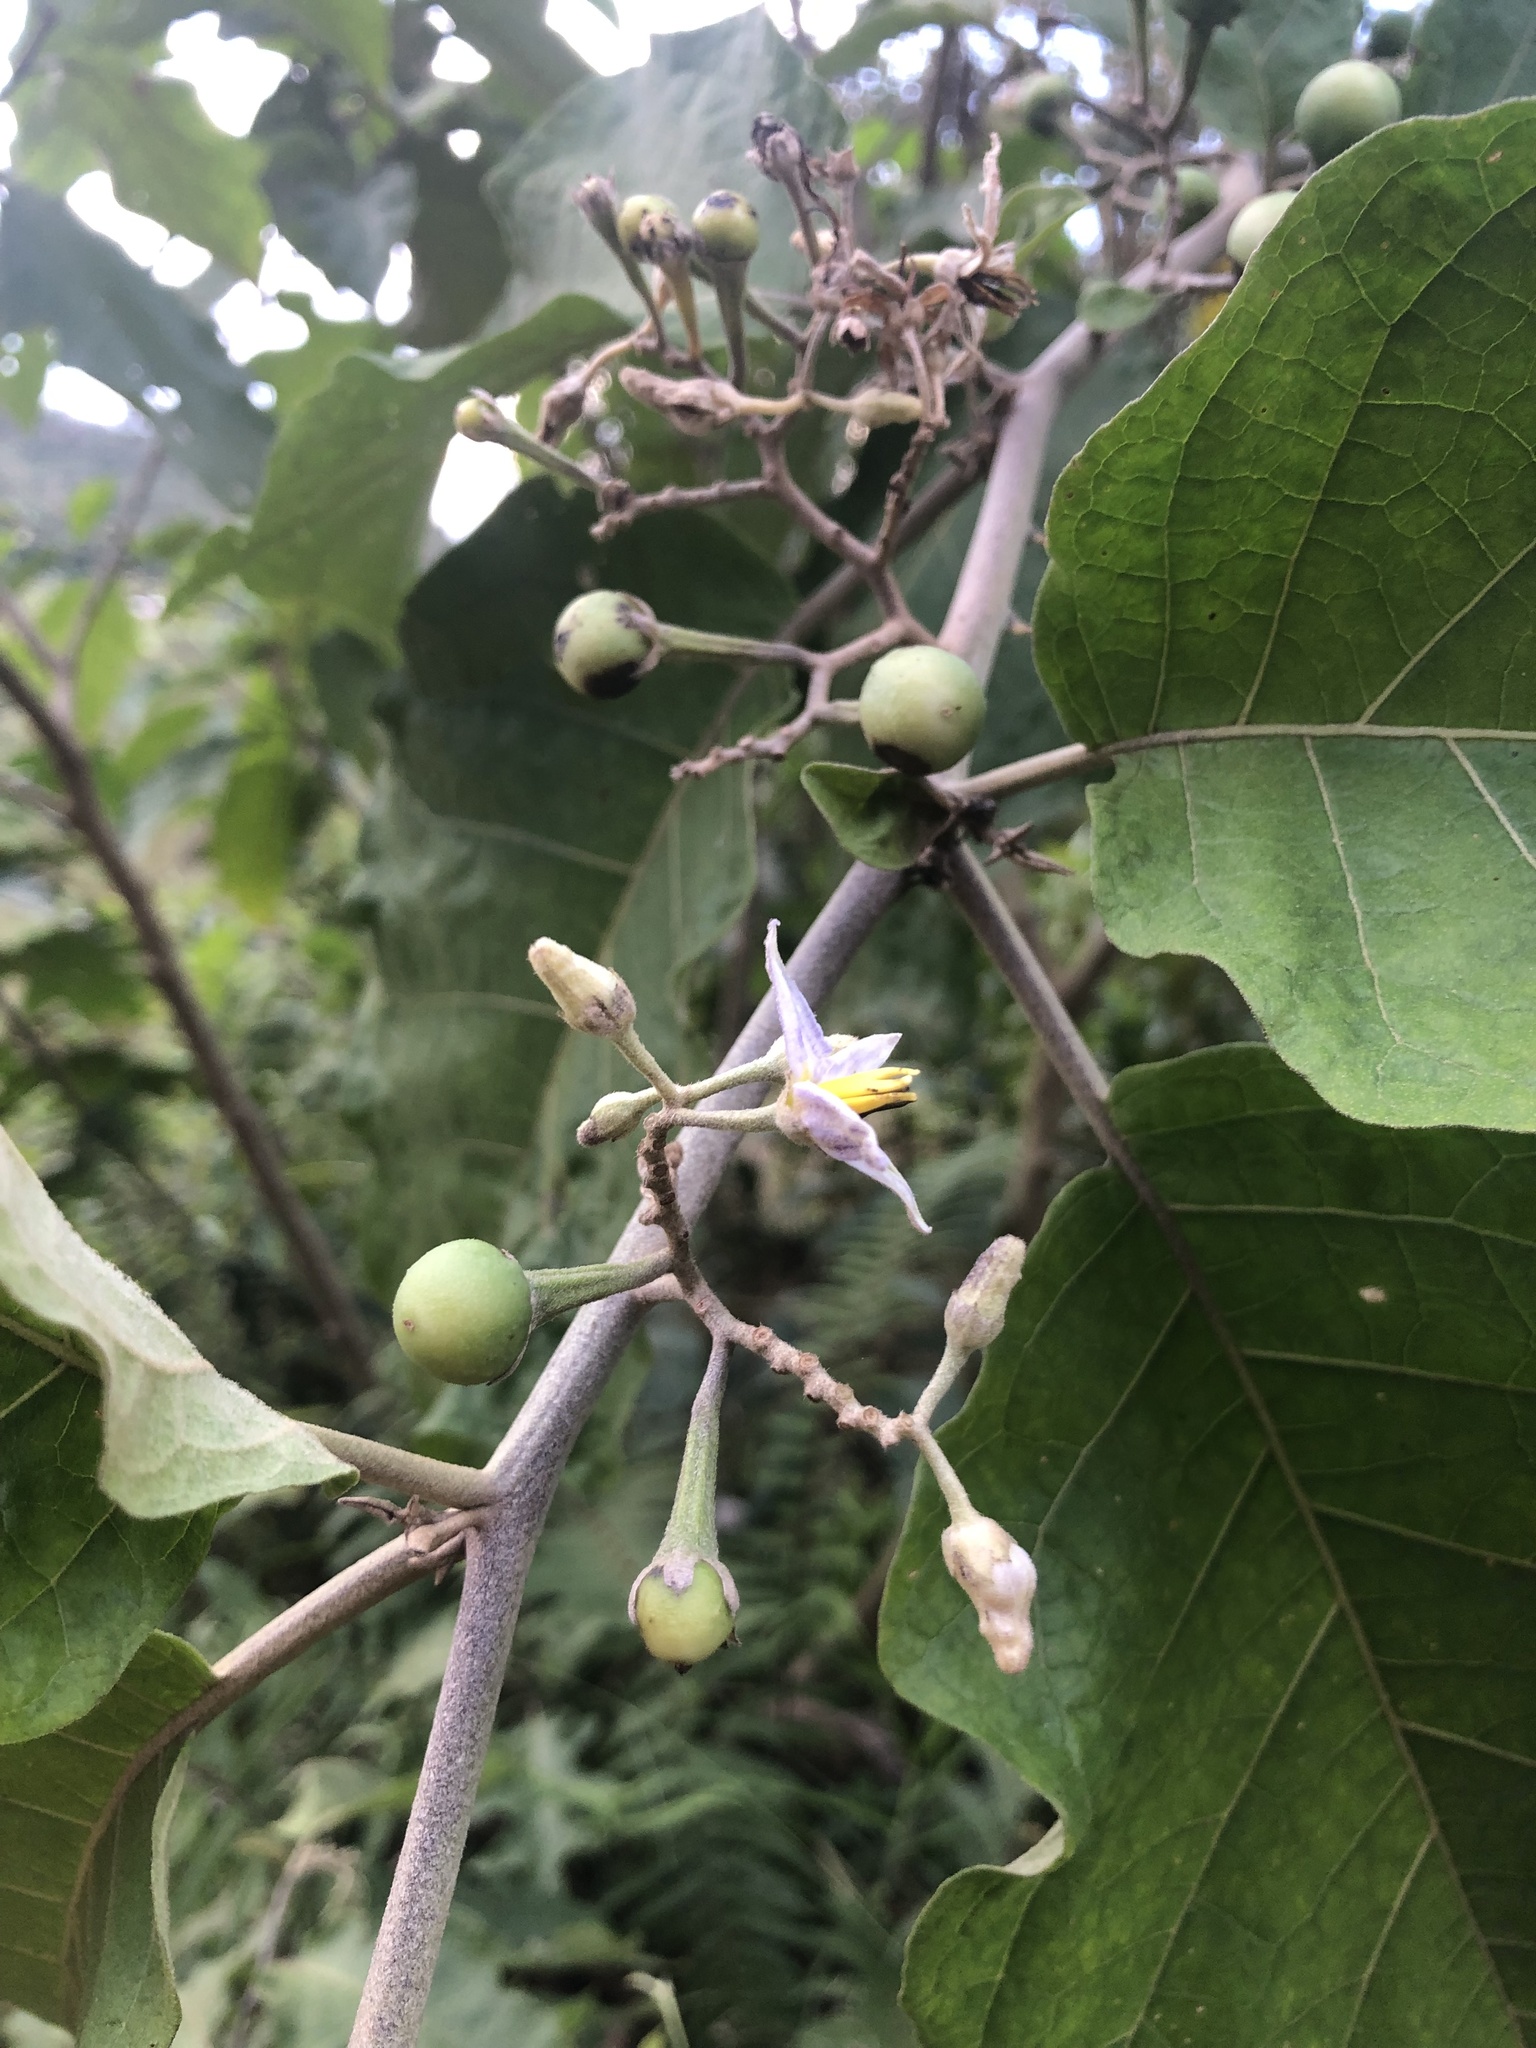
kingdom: Plantae
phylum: Tracheophyta
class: Magnoliopsida
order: Solanales
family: Solanaceae
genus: Solanum
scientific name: Solanum ovalifolium
